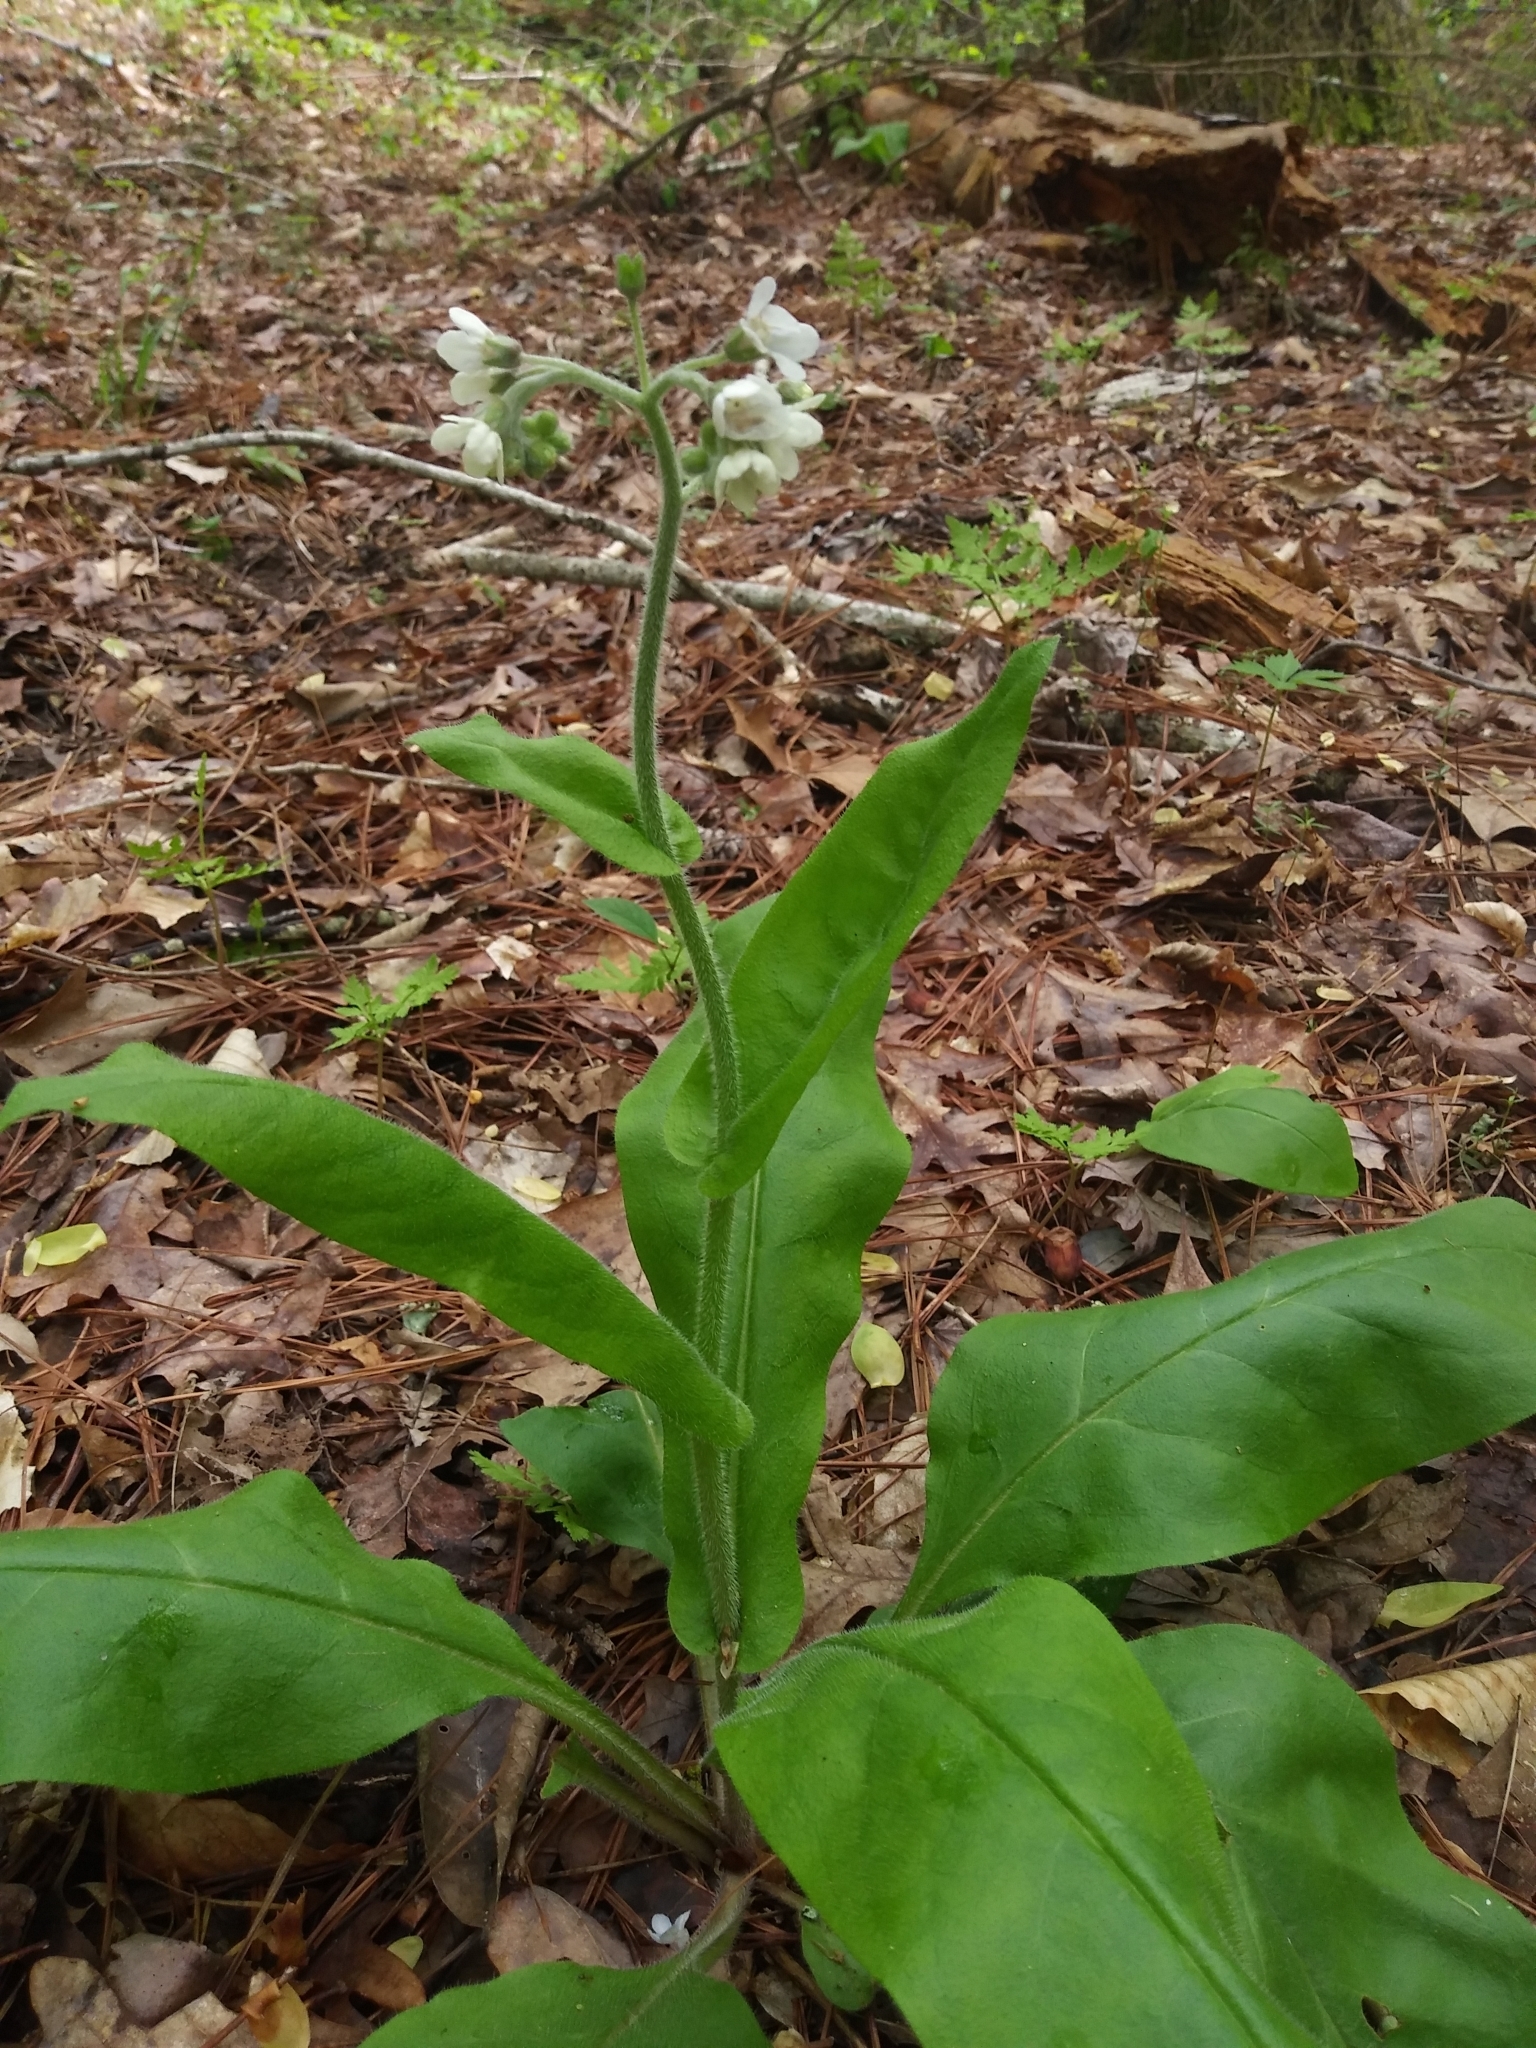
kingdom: Plantae
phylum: Tracheophyta
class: Magnoliopsida
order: Boraginales
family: Boraginaceae
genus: Andersonglossum
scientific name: Andersonglossum virginianum
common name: Wild comfrey
